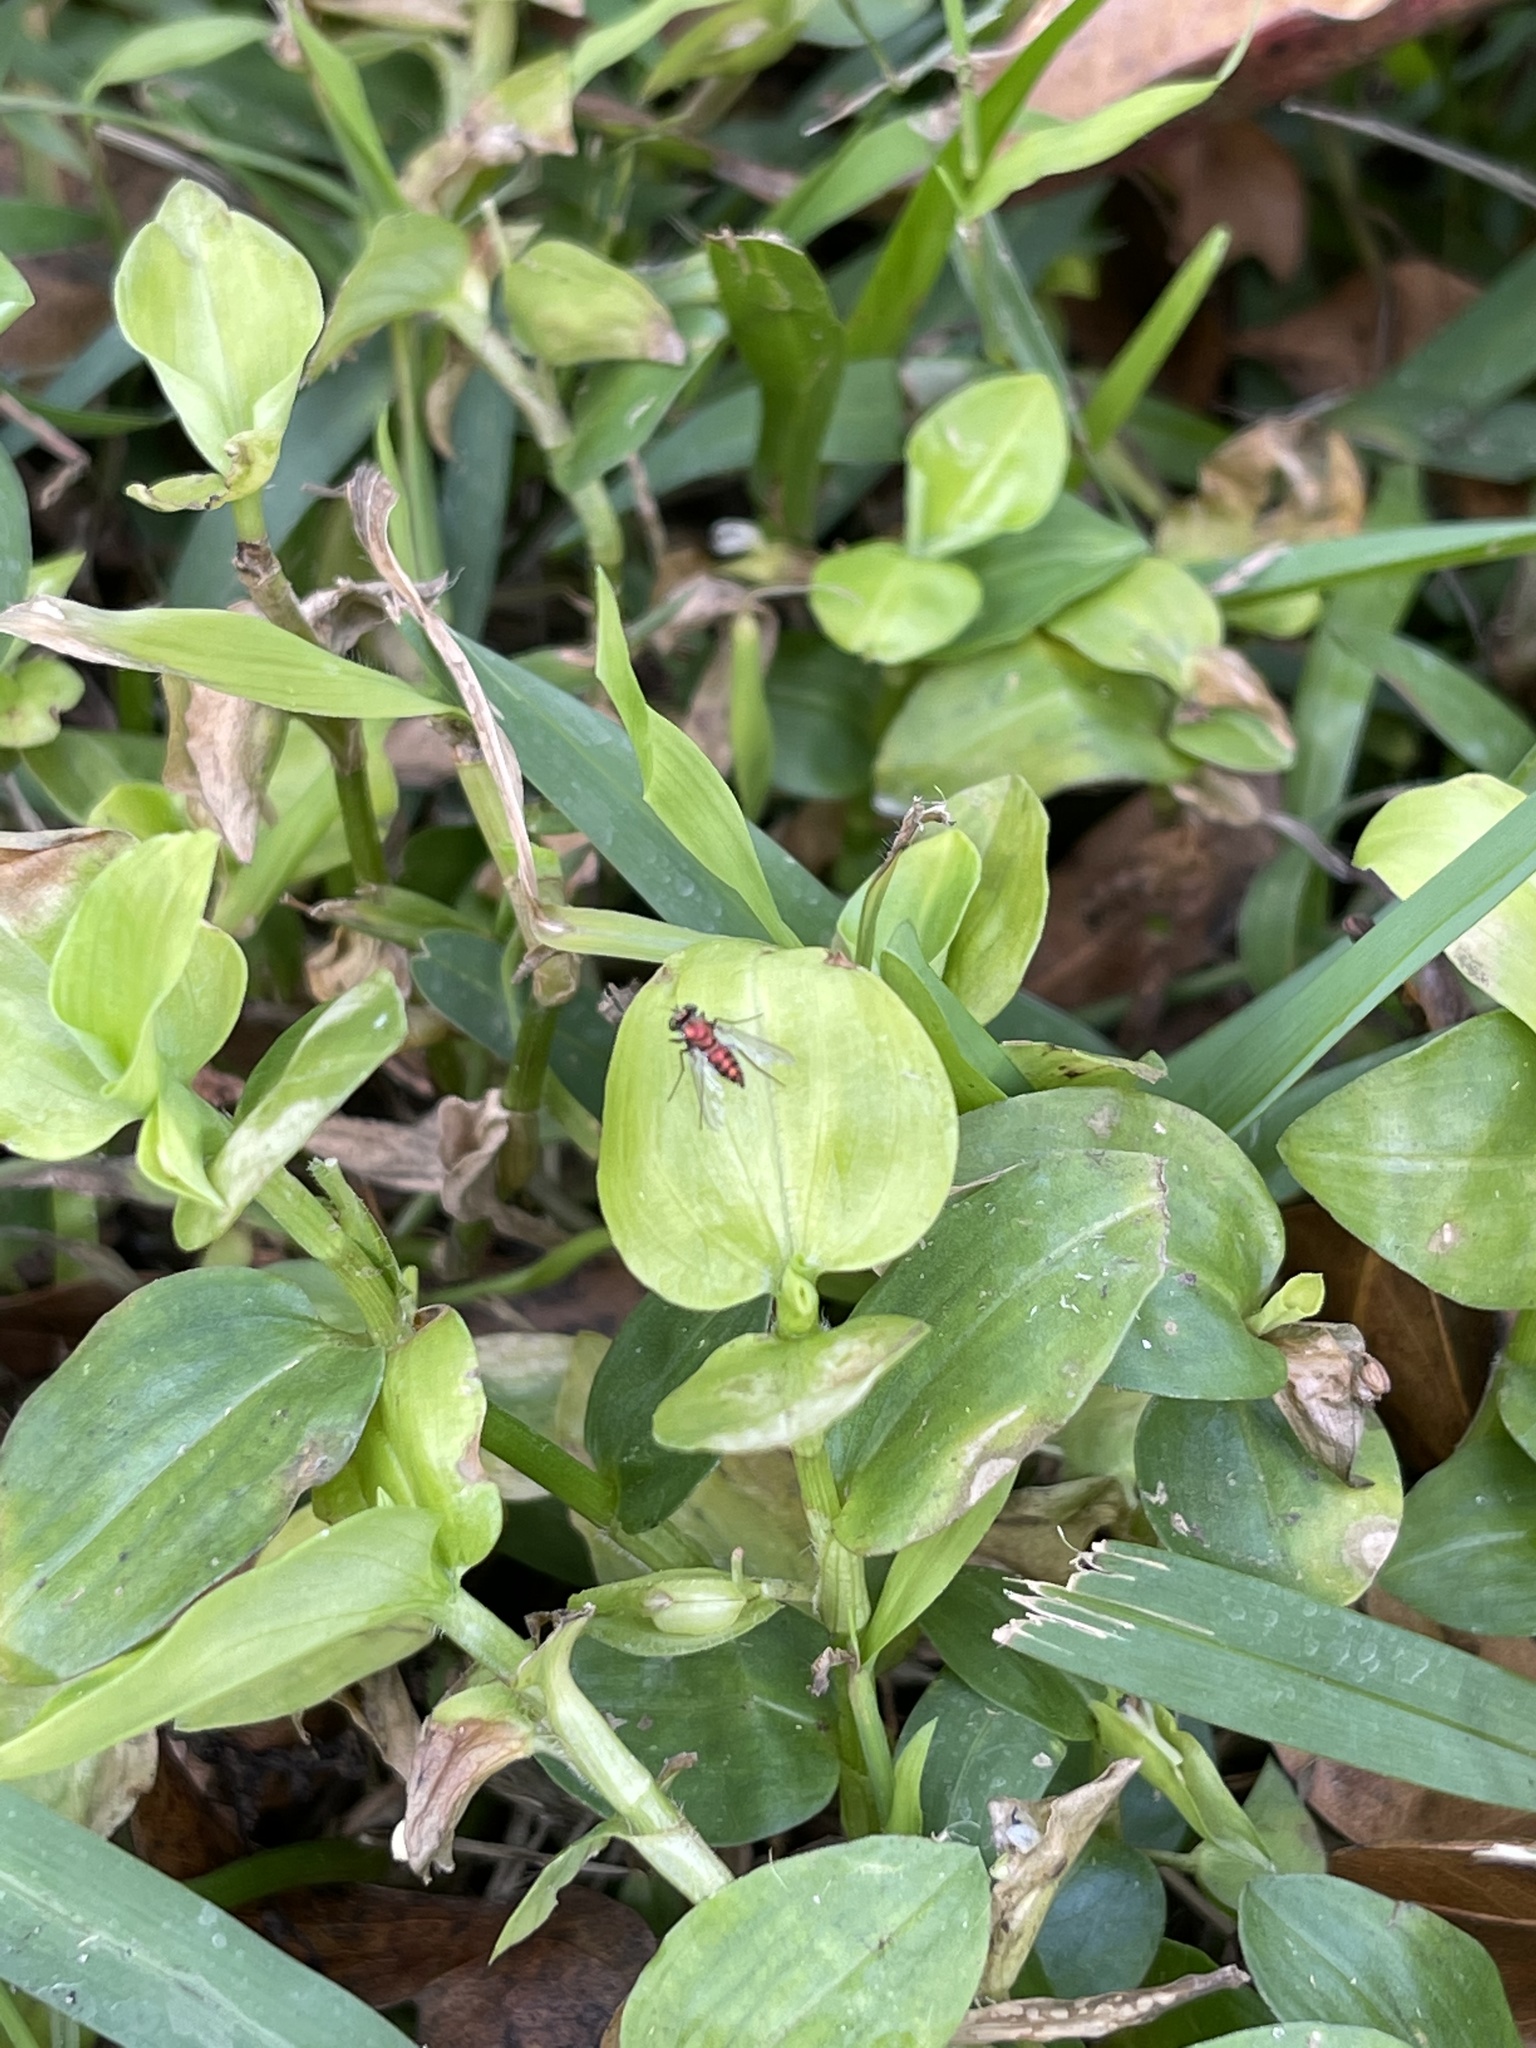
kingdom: Animalia
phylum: Arthropoda
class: Insecta
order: Diptera
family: Dolichopodidae
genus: Condylostylus
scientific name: Condylostylus mundus
